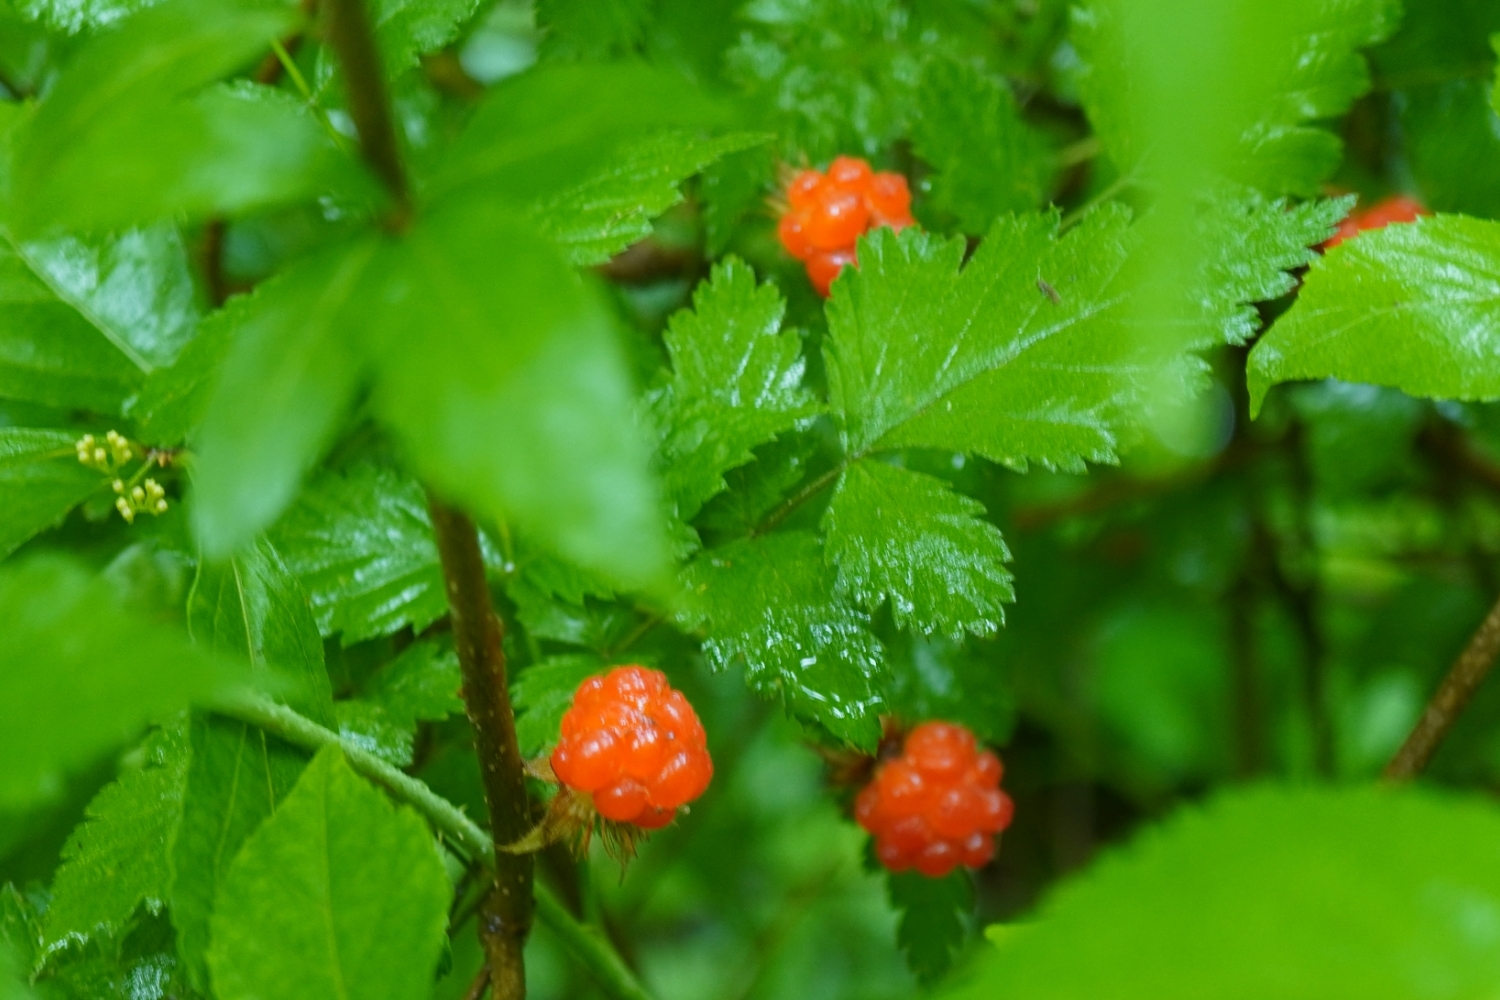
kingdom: Plantae
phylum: Tracheophyta
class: Magnoliopsida
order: Rosales
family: Rosaceae
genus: Rubus
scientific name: Rubus pungens
